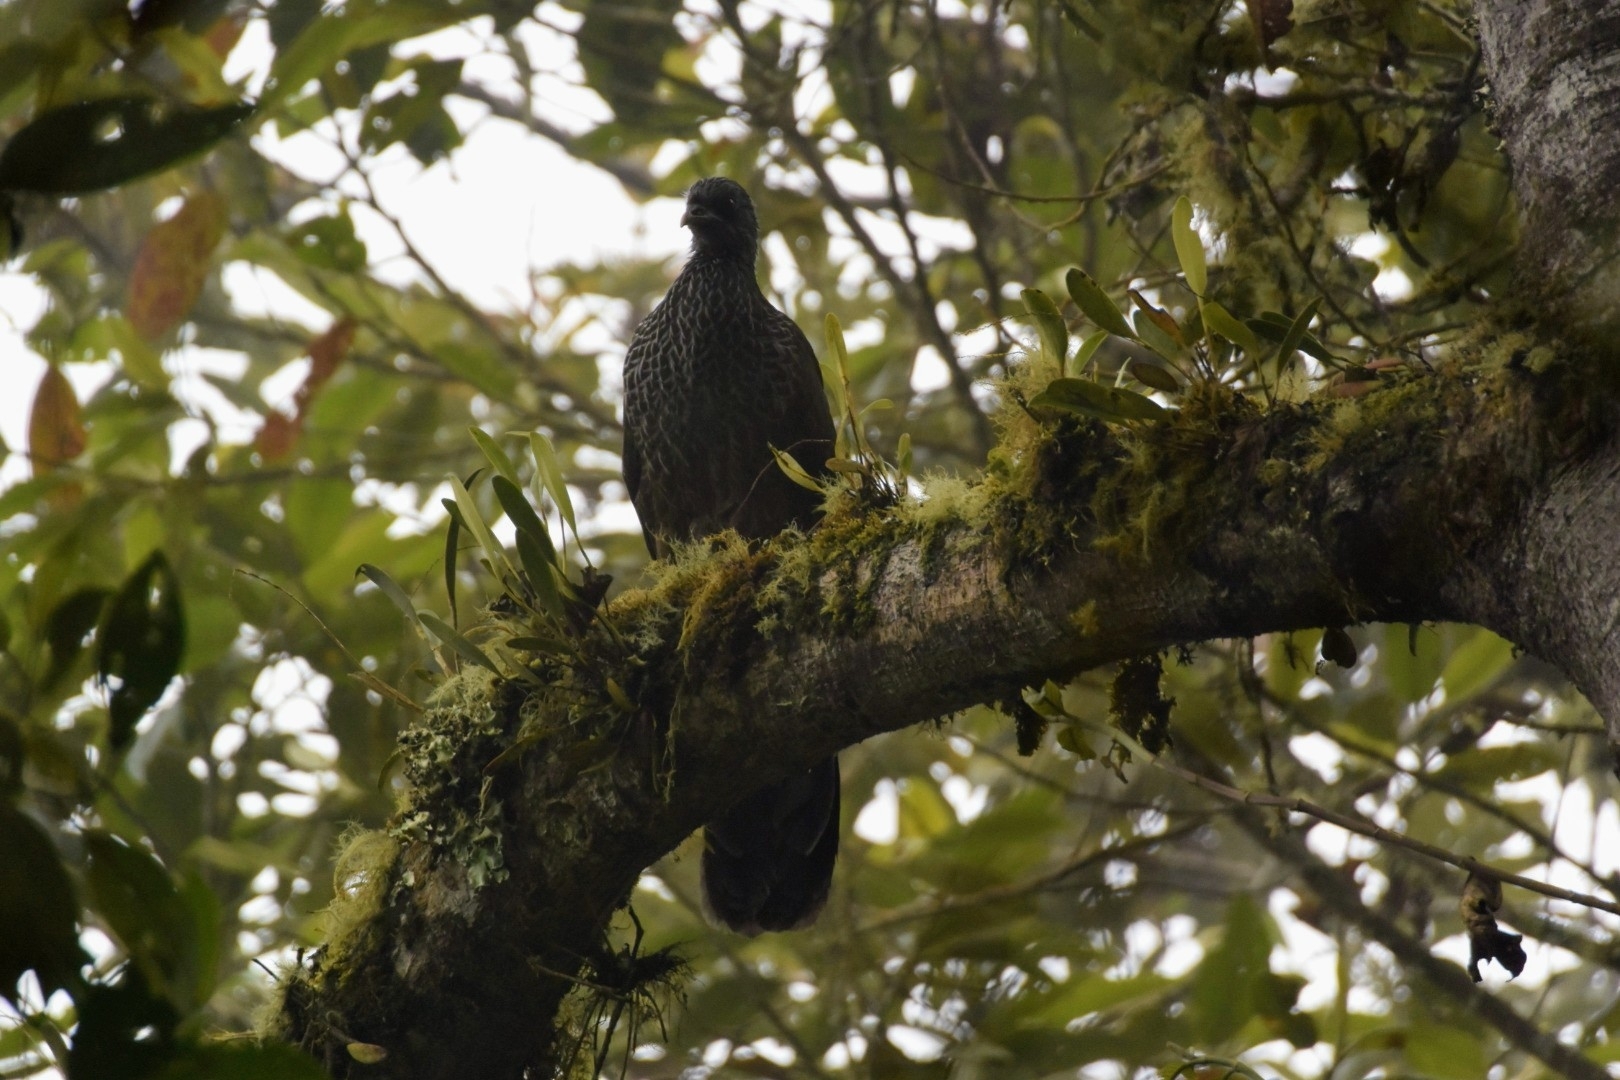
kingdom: Animalia
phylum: Chordata
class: Aves
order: Galliformes
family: Cracidae
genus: Penelope
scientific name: Penelope montagnii
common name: Andean guan
